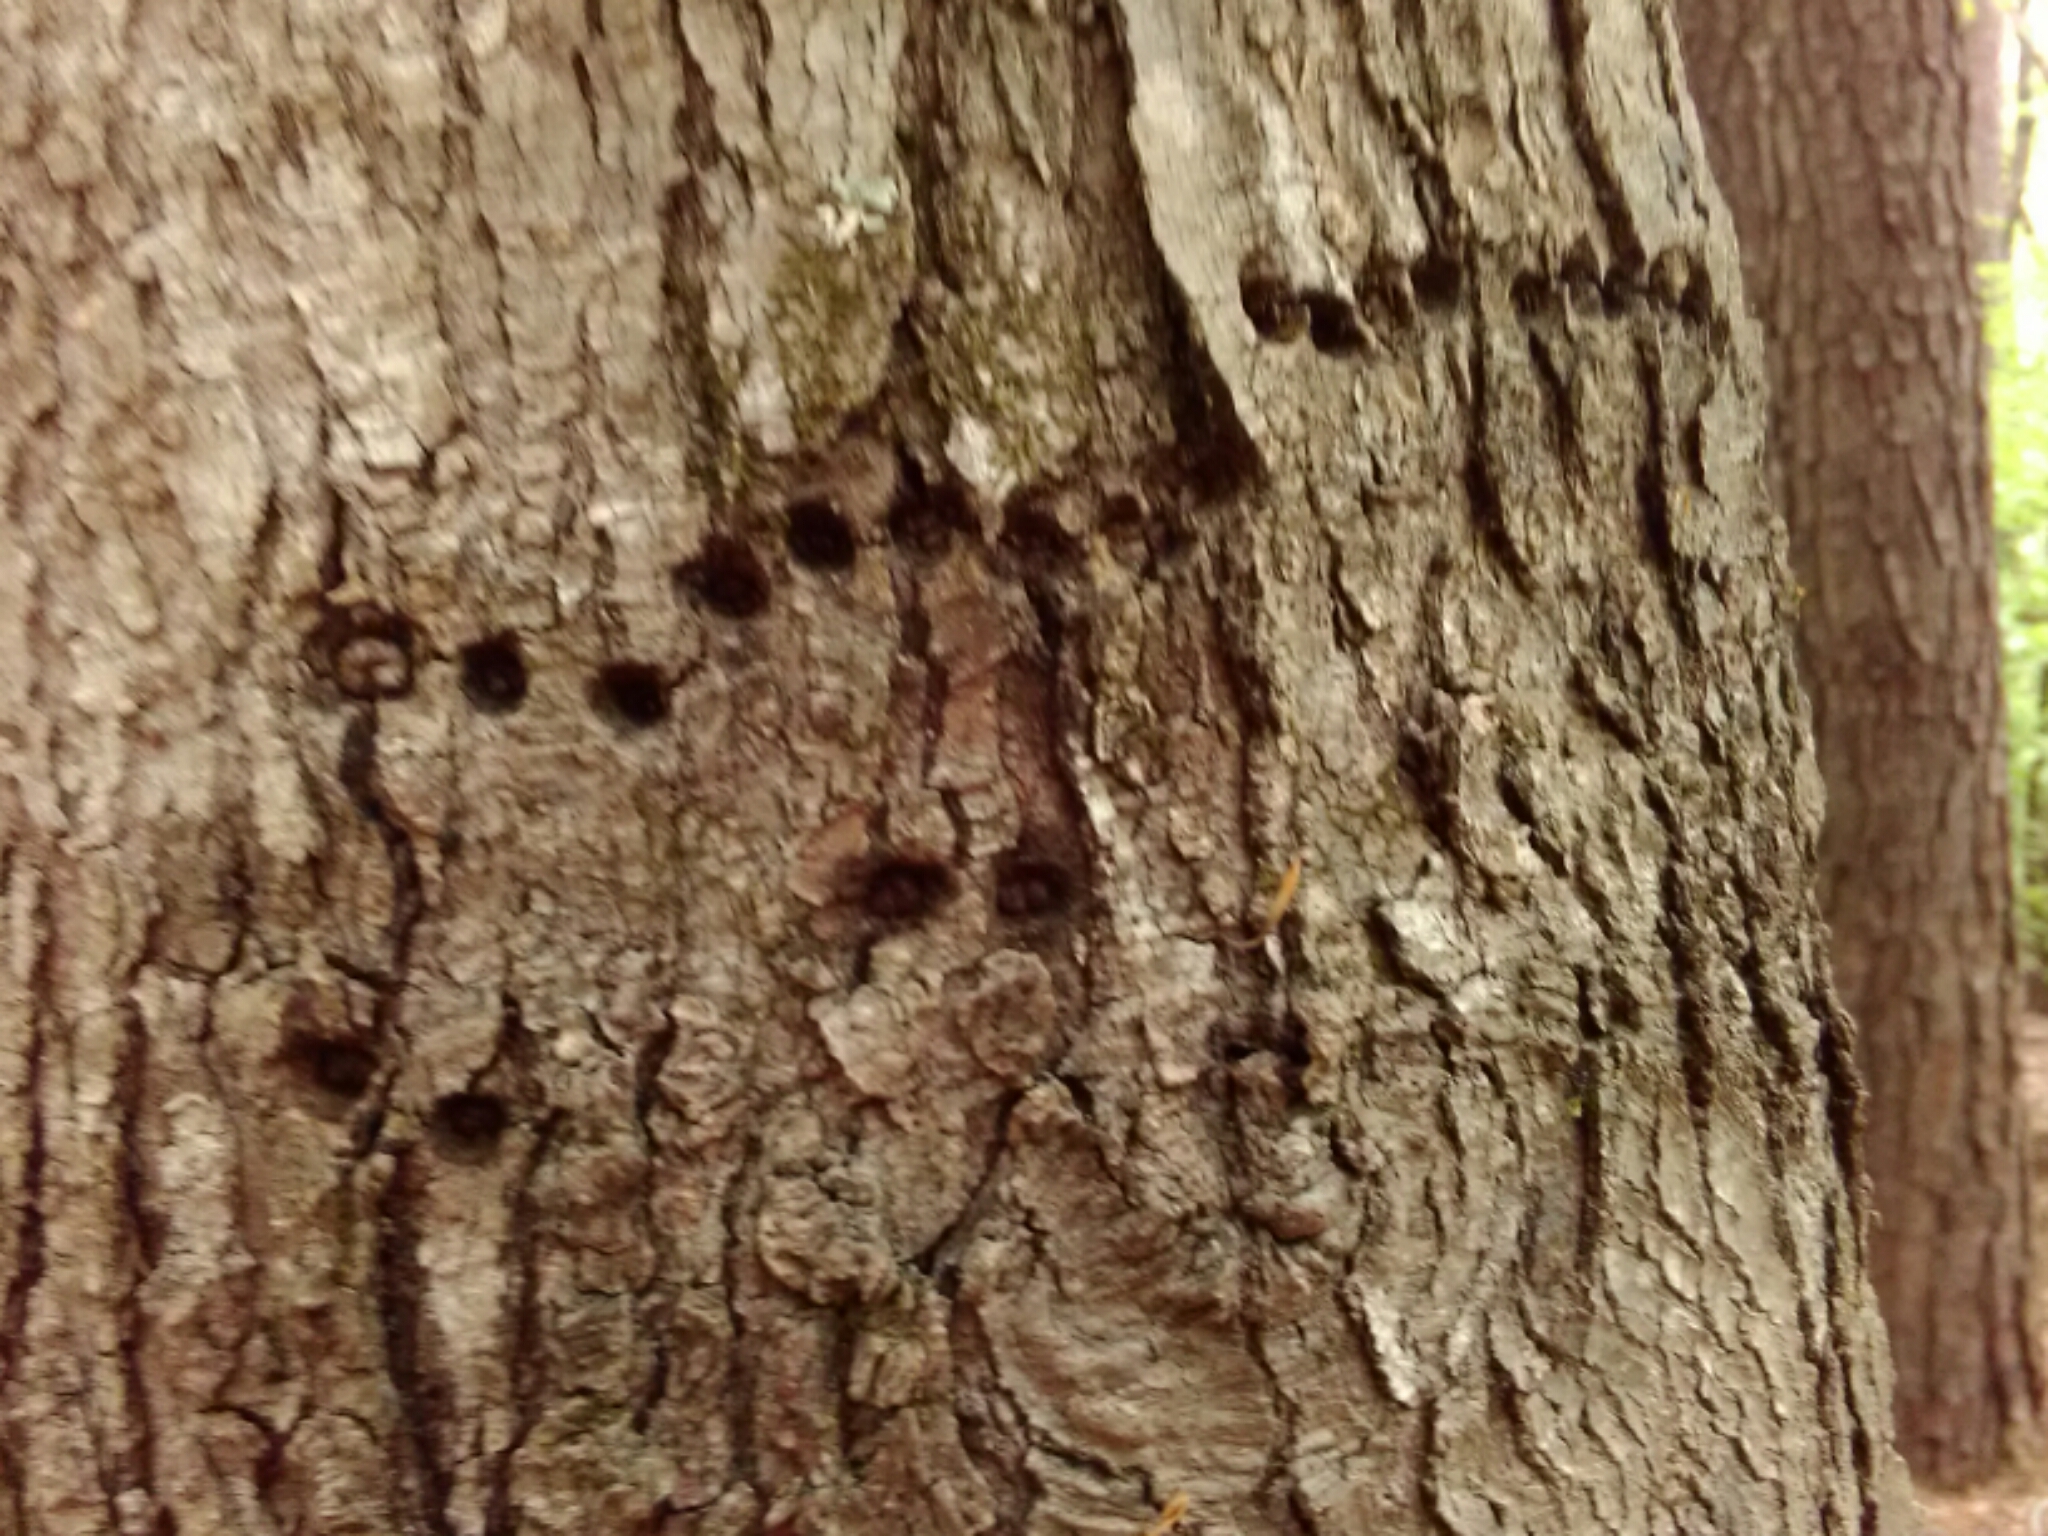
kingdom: Animalia
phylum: Chordata
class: Aves
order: Piciformes
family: Picidae
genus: Sphyrapicus
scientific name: Sphyrapicus varius
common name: Yellow-bellied sapsucker
